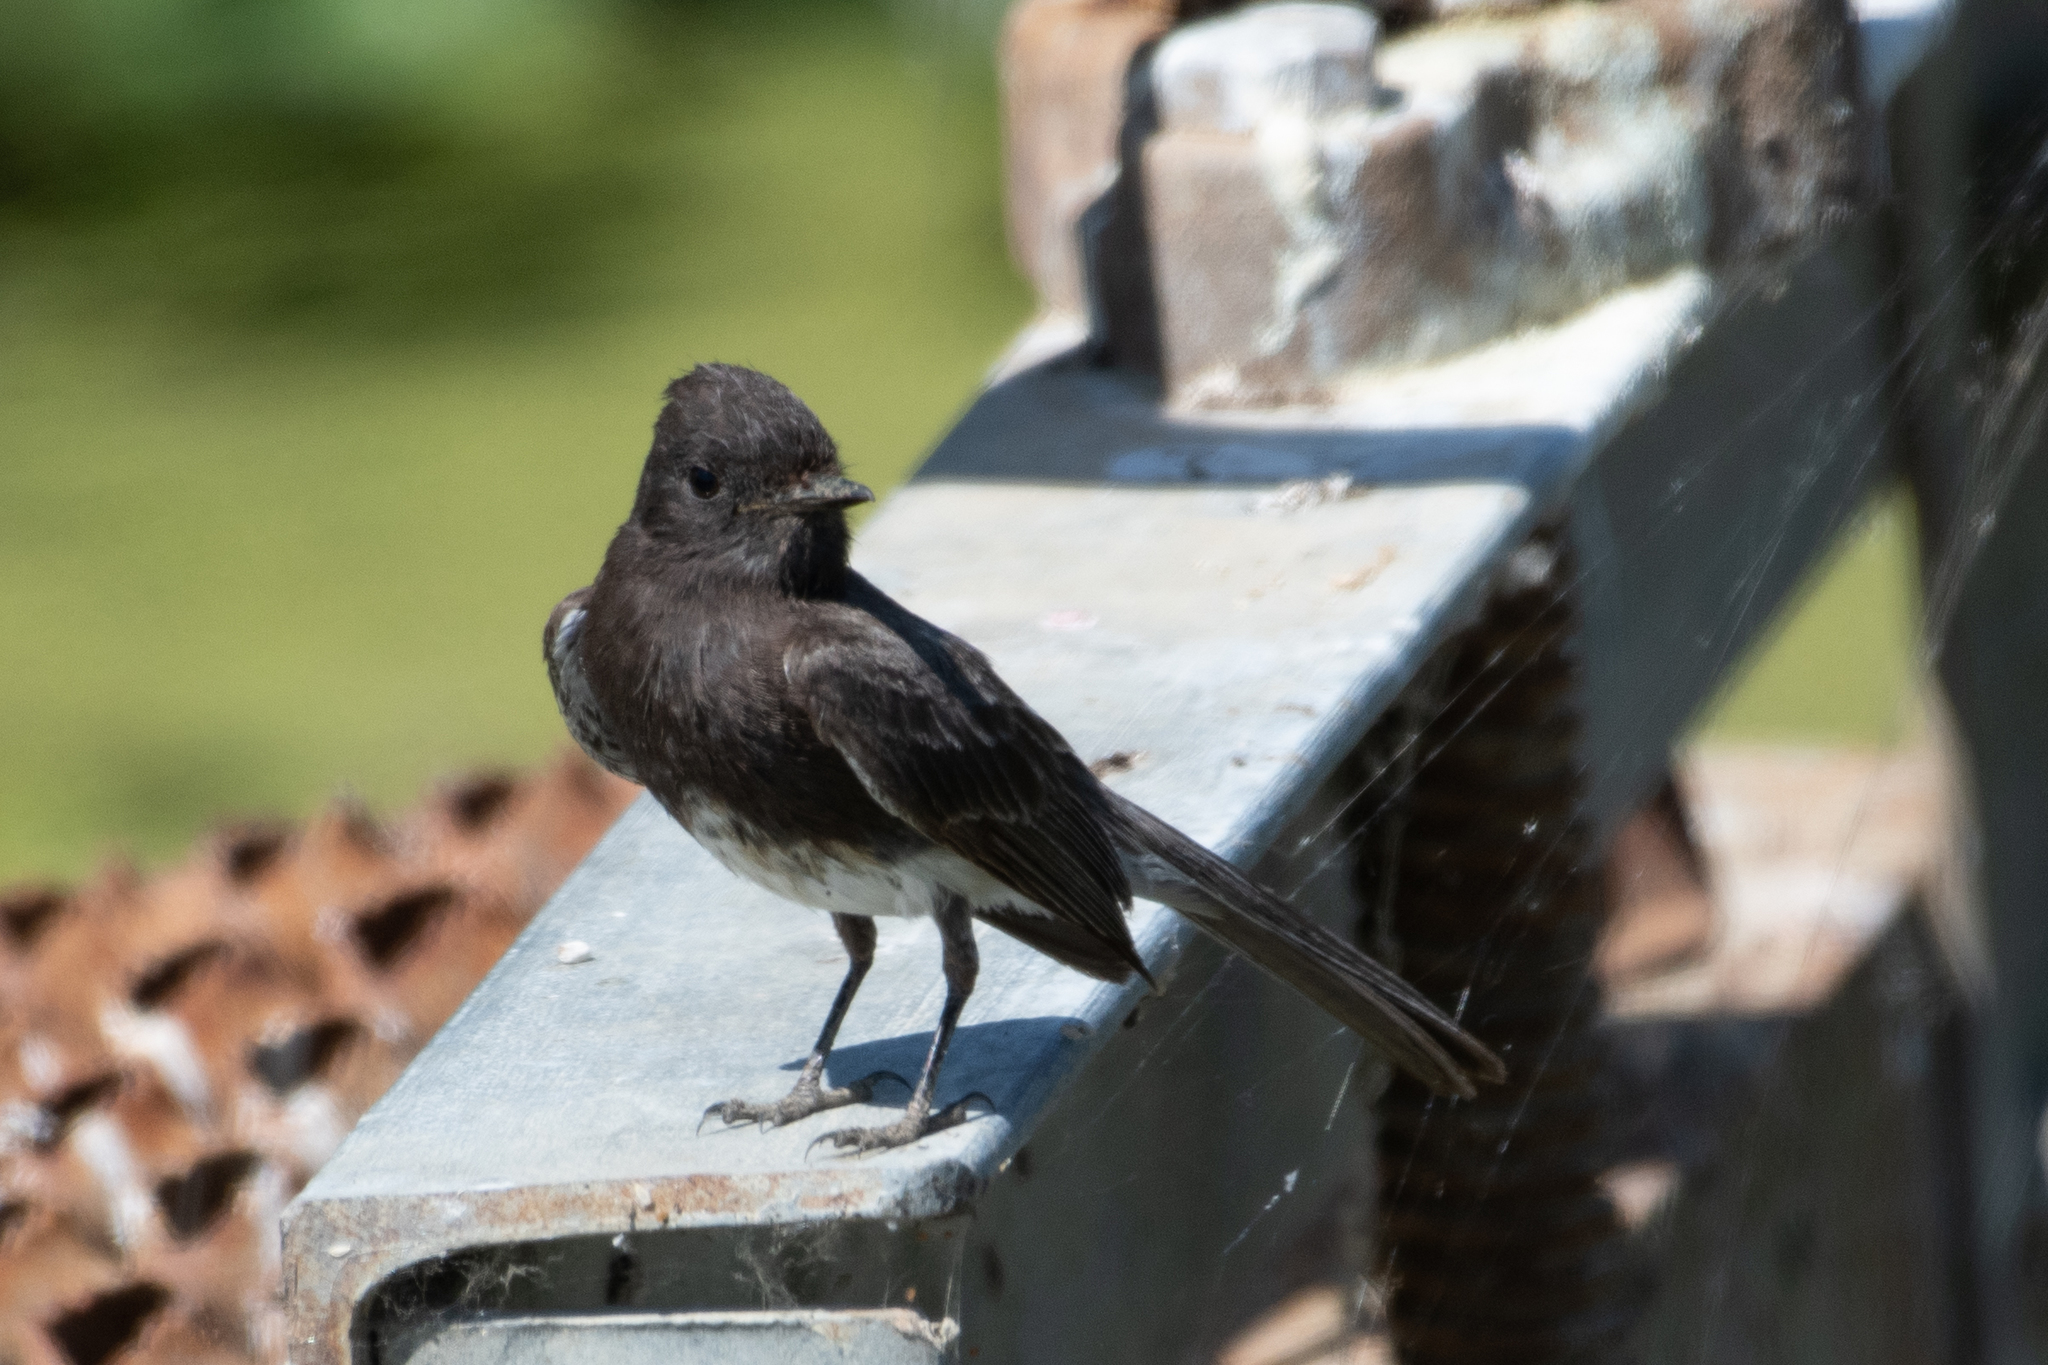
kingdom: Animalia
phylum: Chordata
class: Aves
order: Passeriformes
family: Tyrannidae
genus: Sayornis
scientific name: Sayornis nigricans
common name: Black phoebe
